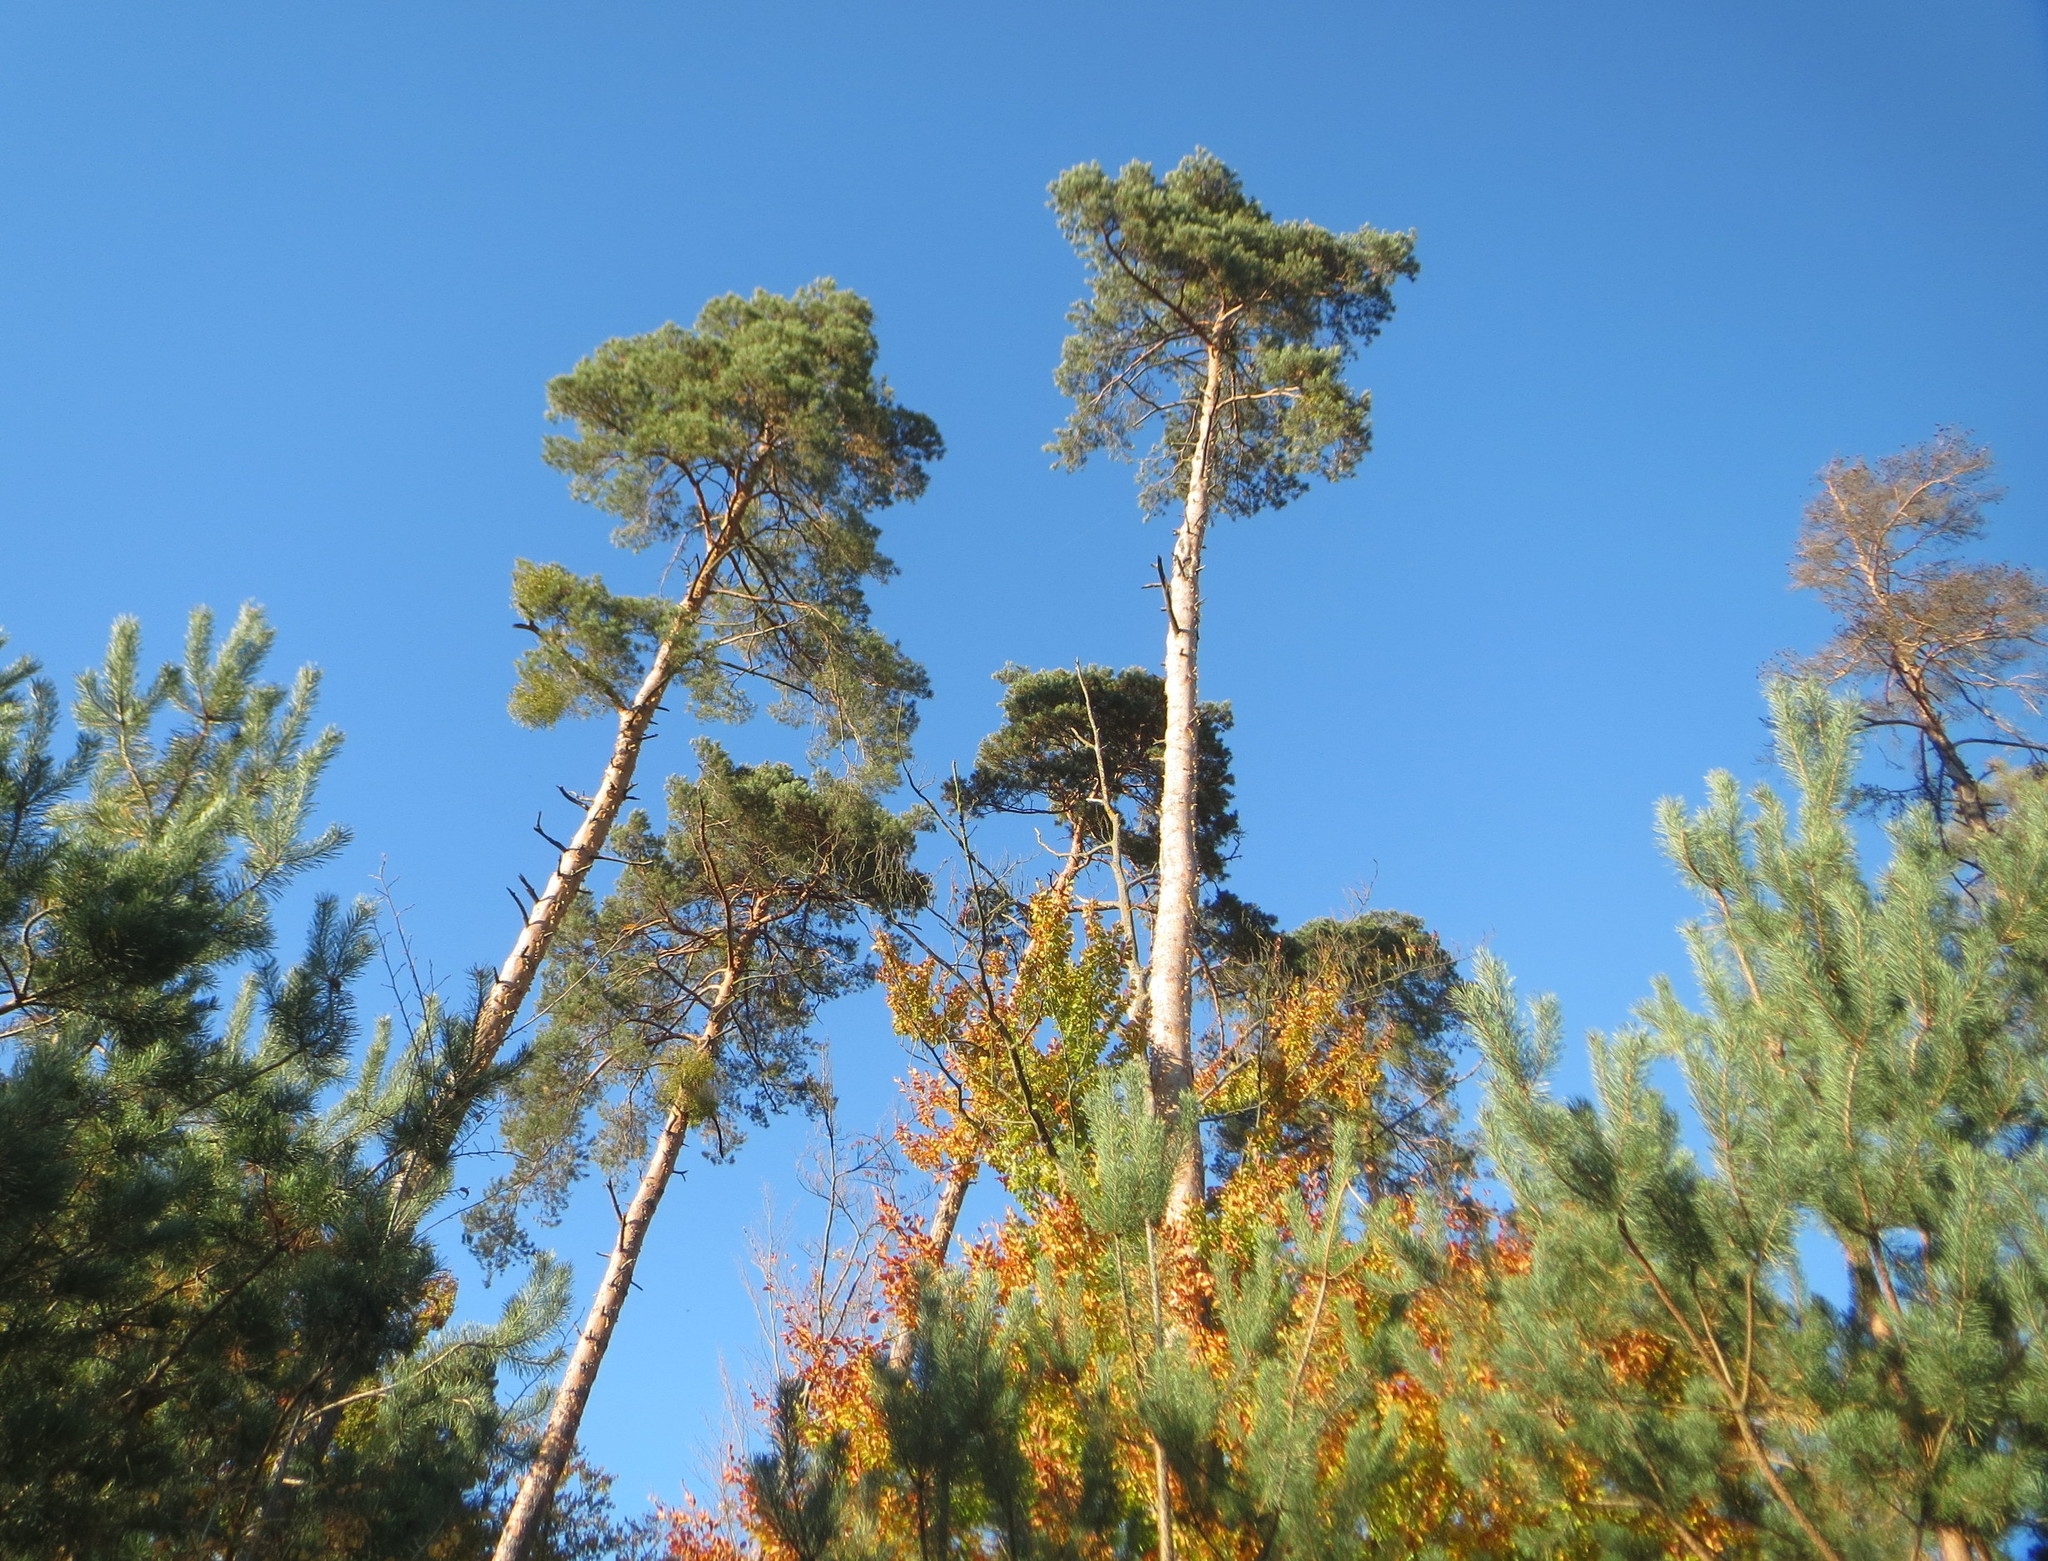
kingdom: Plantae
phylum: Tracheophyta
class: Pinopsida
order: Pinales
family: Pinaceae
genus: Pinus
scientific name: Pinus sylvestris
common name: Scots pine
